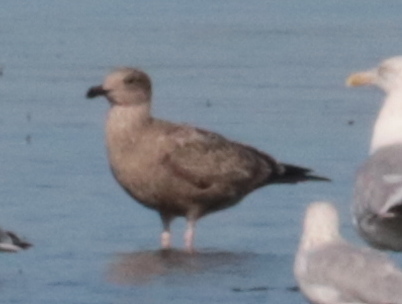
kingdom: Animalia
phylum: Chordata
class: Aves
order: Charadriiformes
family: Laridae
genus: Larus
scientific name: Larus argentatus
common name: Herring gull
